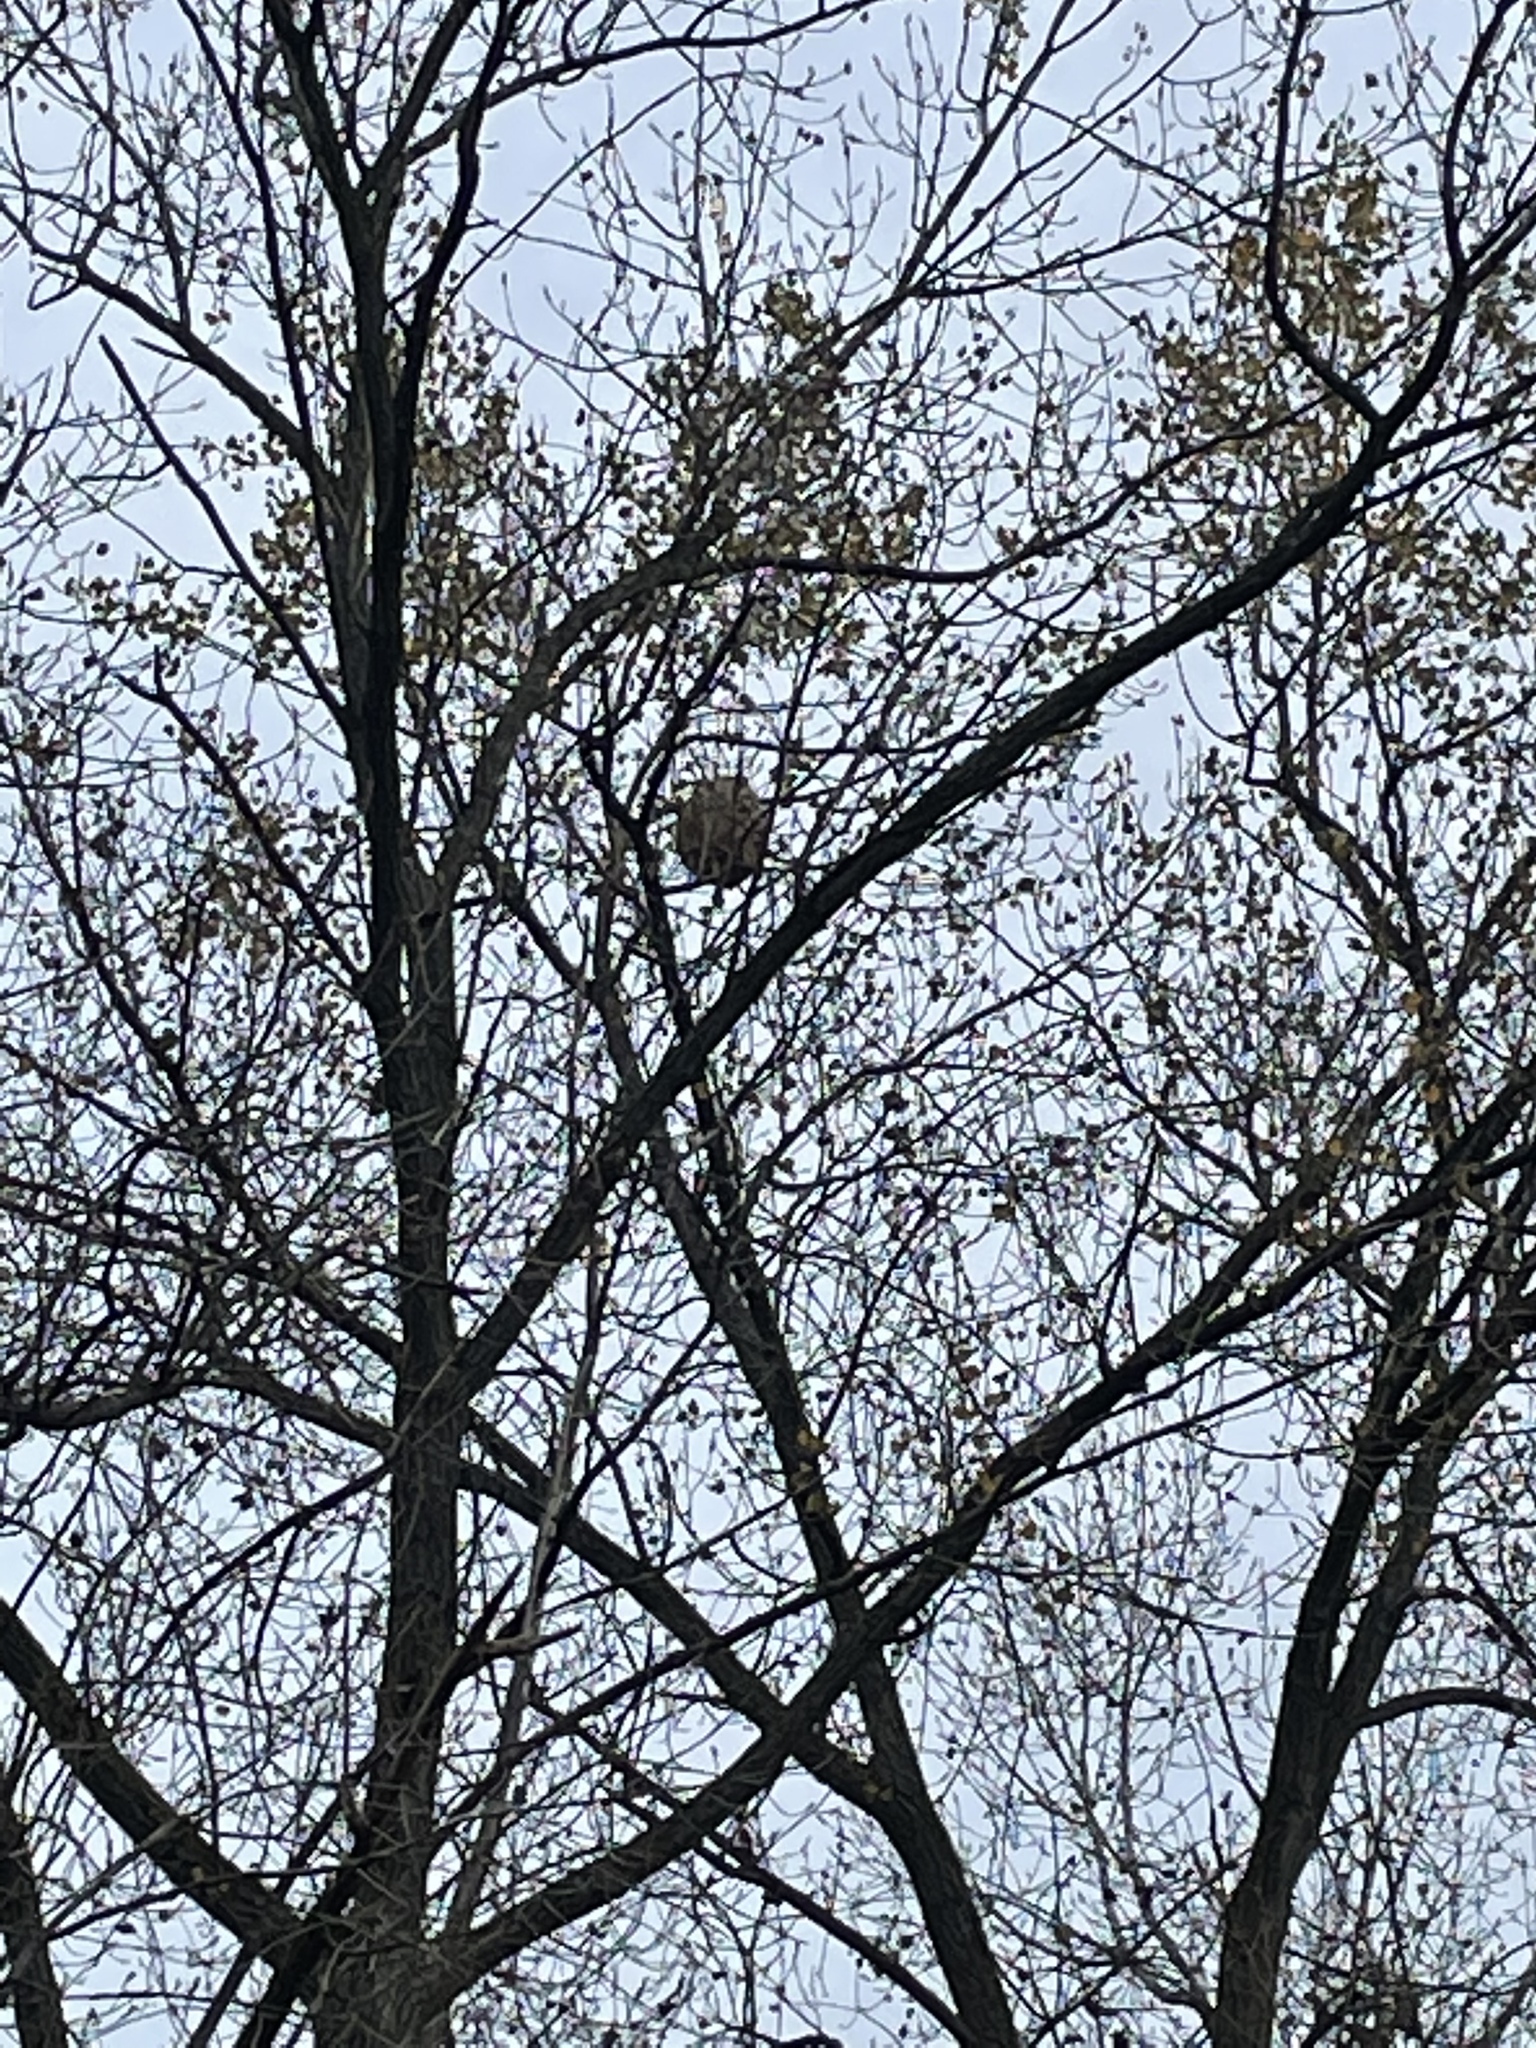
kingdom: Animalia
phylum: Arthropoda
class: Insecta
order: Hymenoptera
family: Vespidae
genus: Vespa
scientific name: Vespa velutina
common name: Asian hornet
